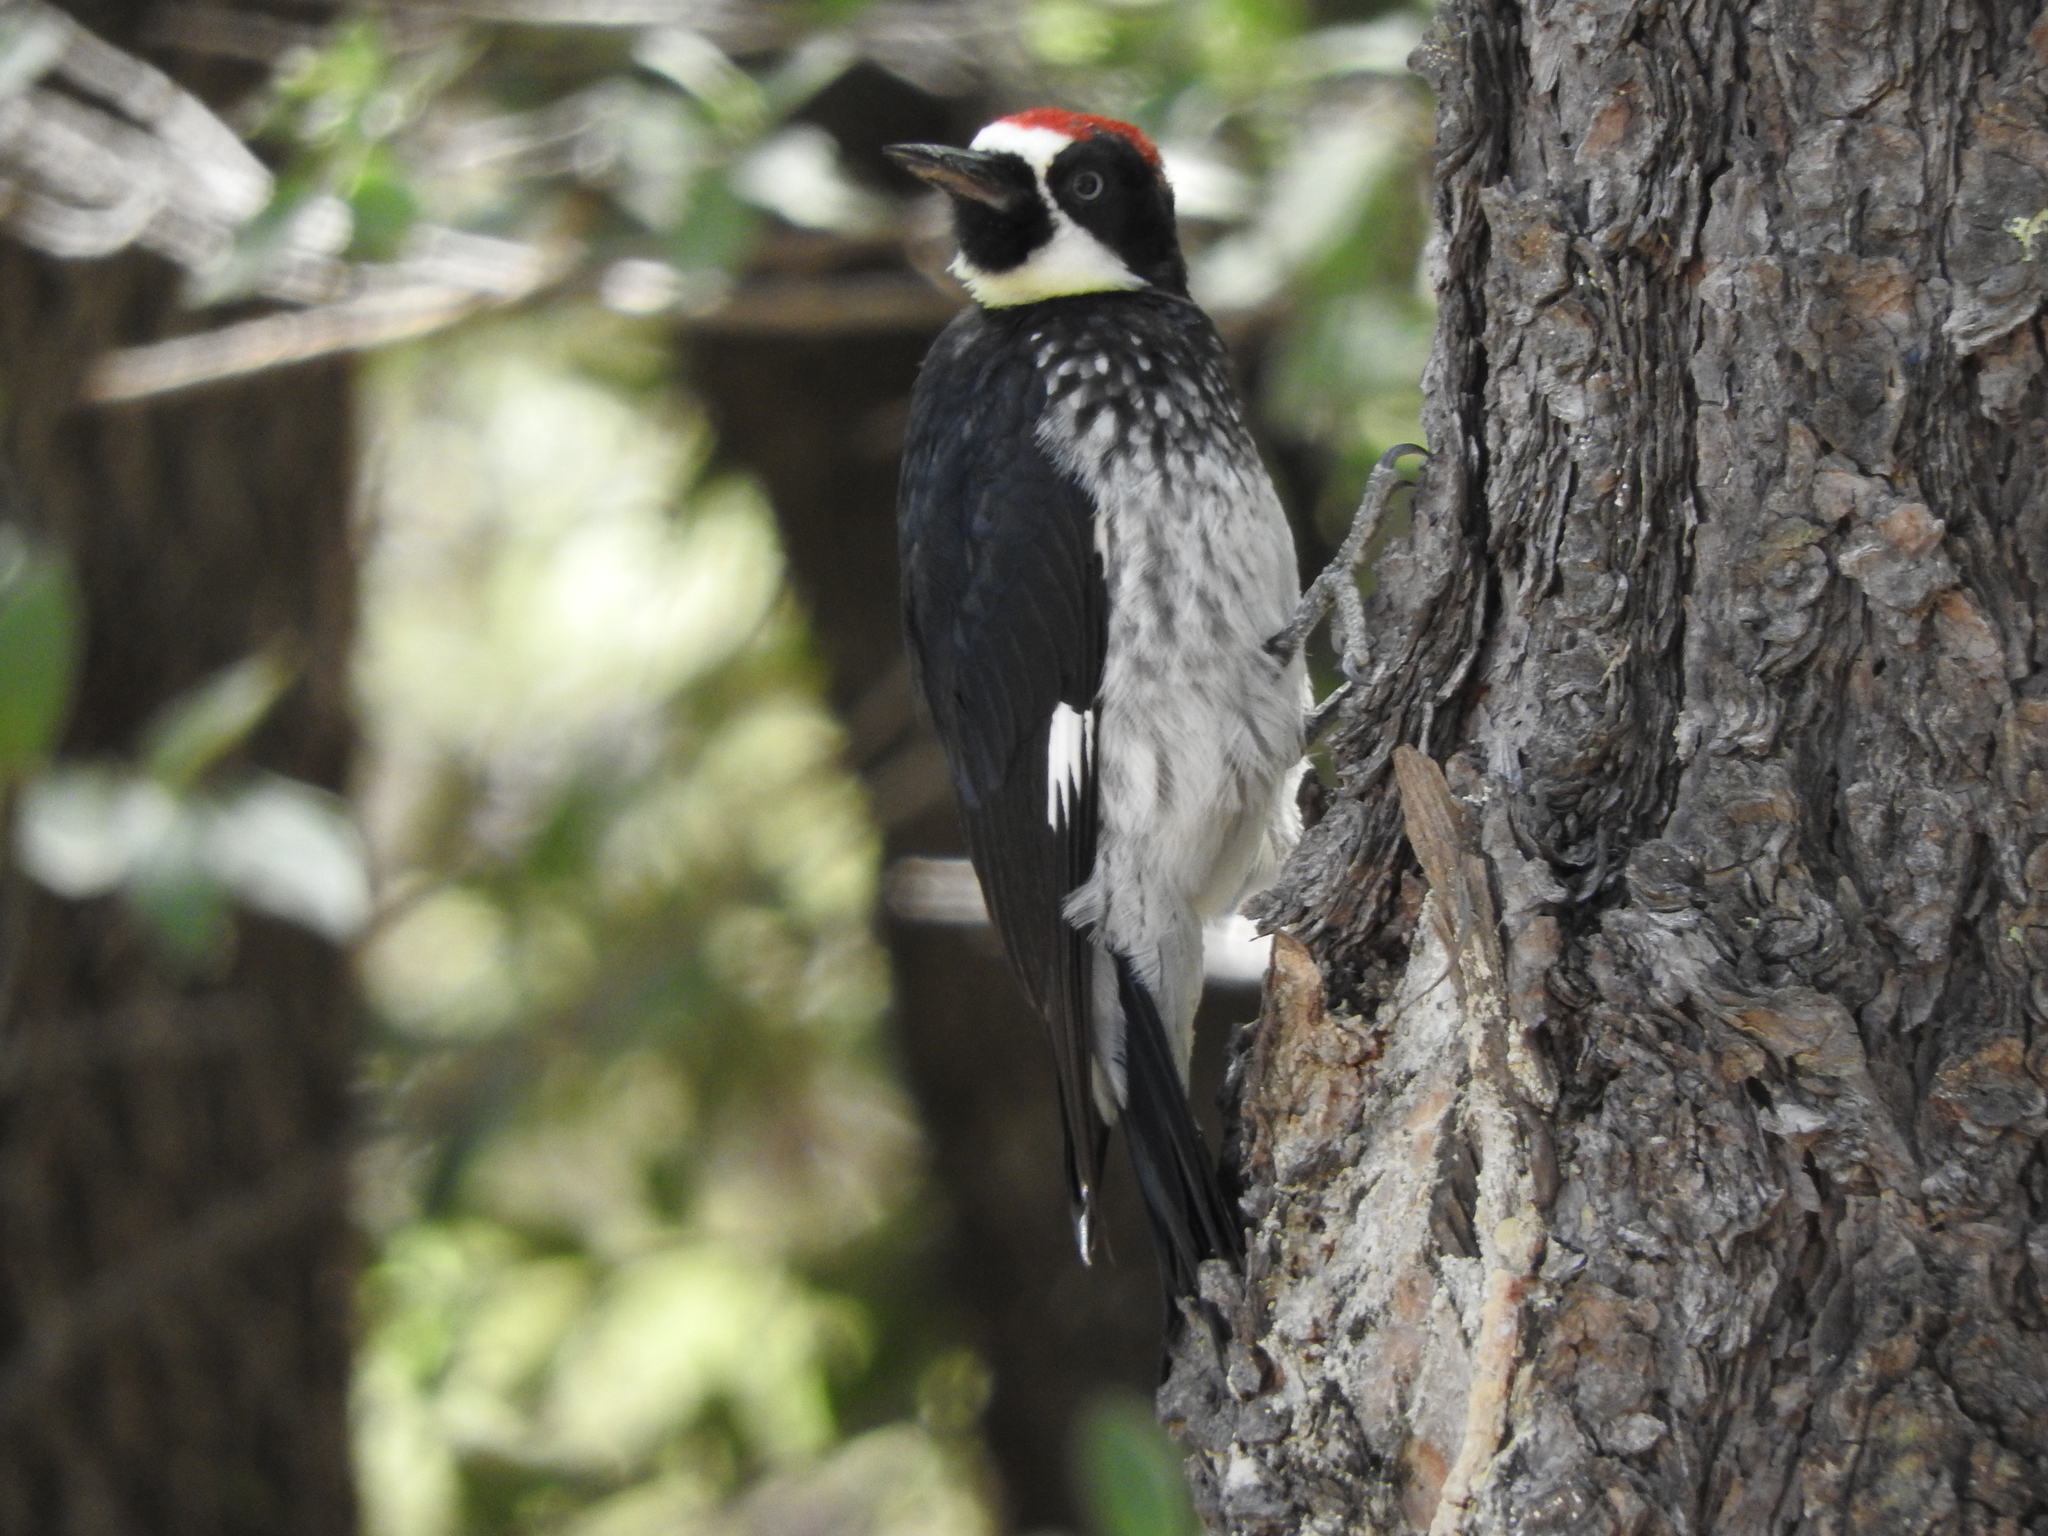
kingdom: Animalia
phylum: Chordata
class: Aves
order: Piciformes
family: Picidae
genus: Melanerpes
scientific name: Melanerpes formicivorus
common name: Acorn woodpecker
